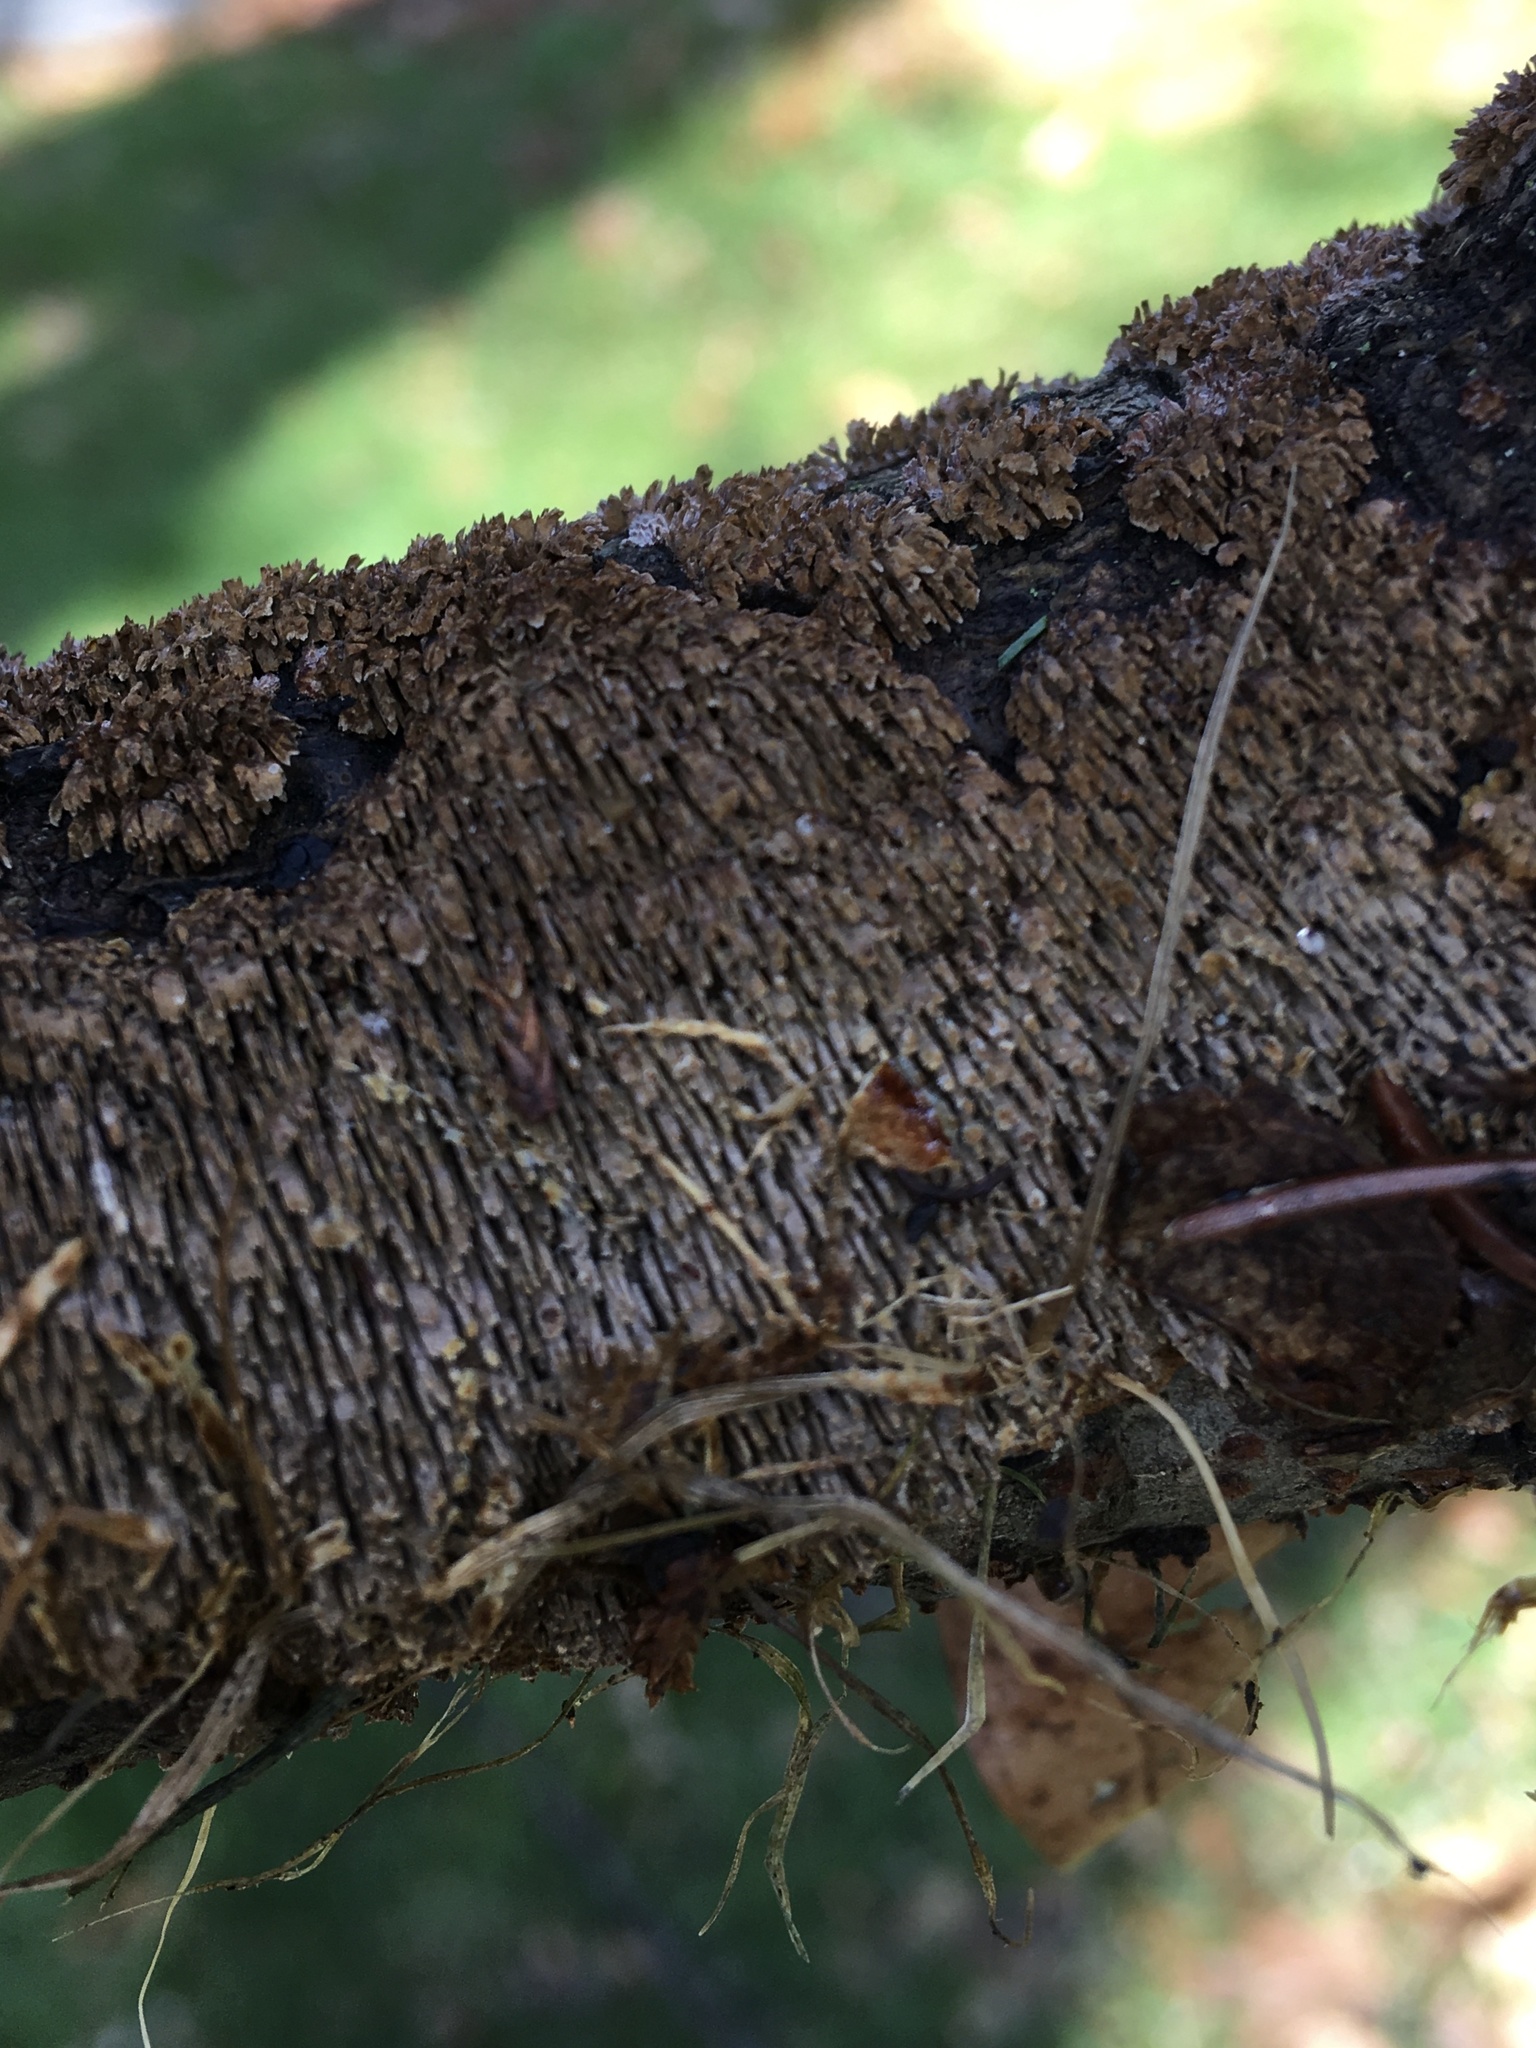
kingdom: Fungi
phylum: Basidiomycota
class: Agaricomycetes
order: Hymenochaetales
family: Hymenochaetaceae
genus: Hydnoporia
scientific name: Hydnoporia olivacea
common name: Brown-toothed crust fungus
